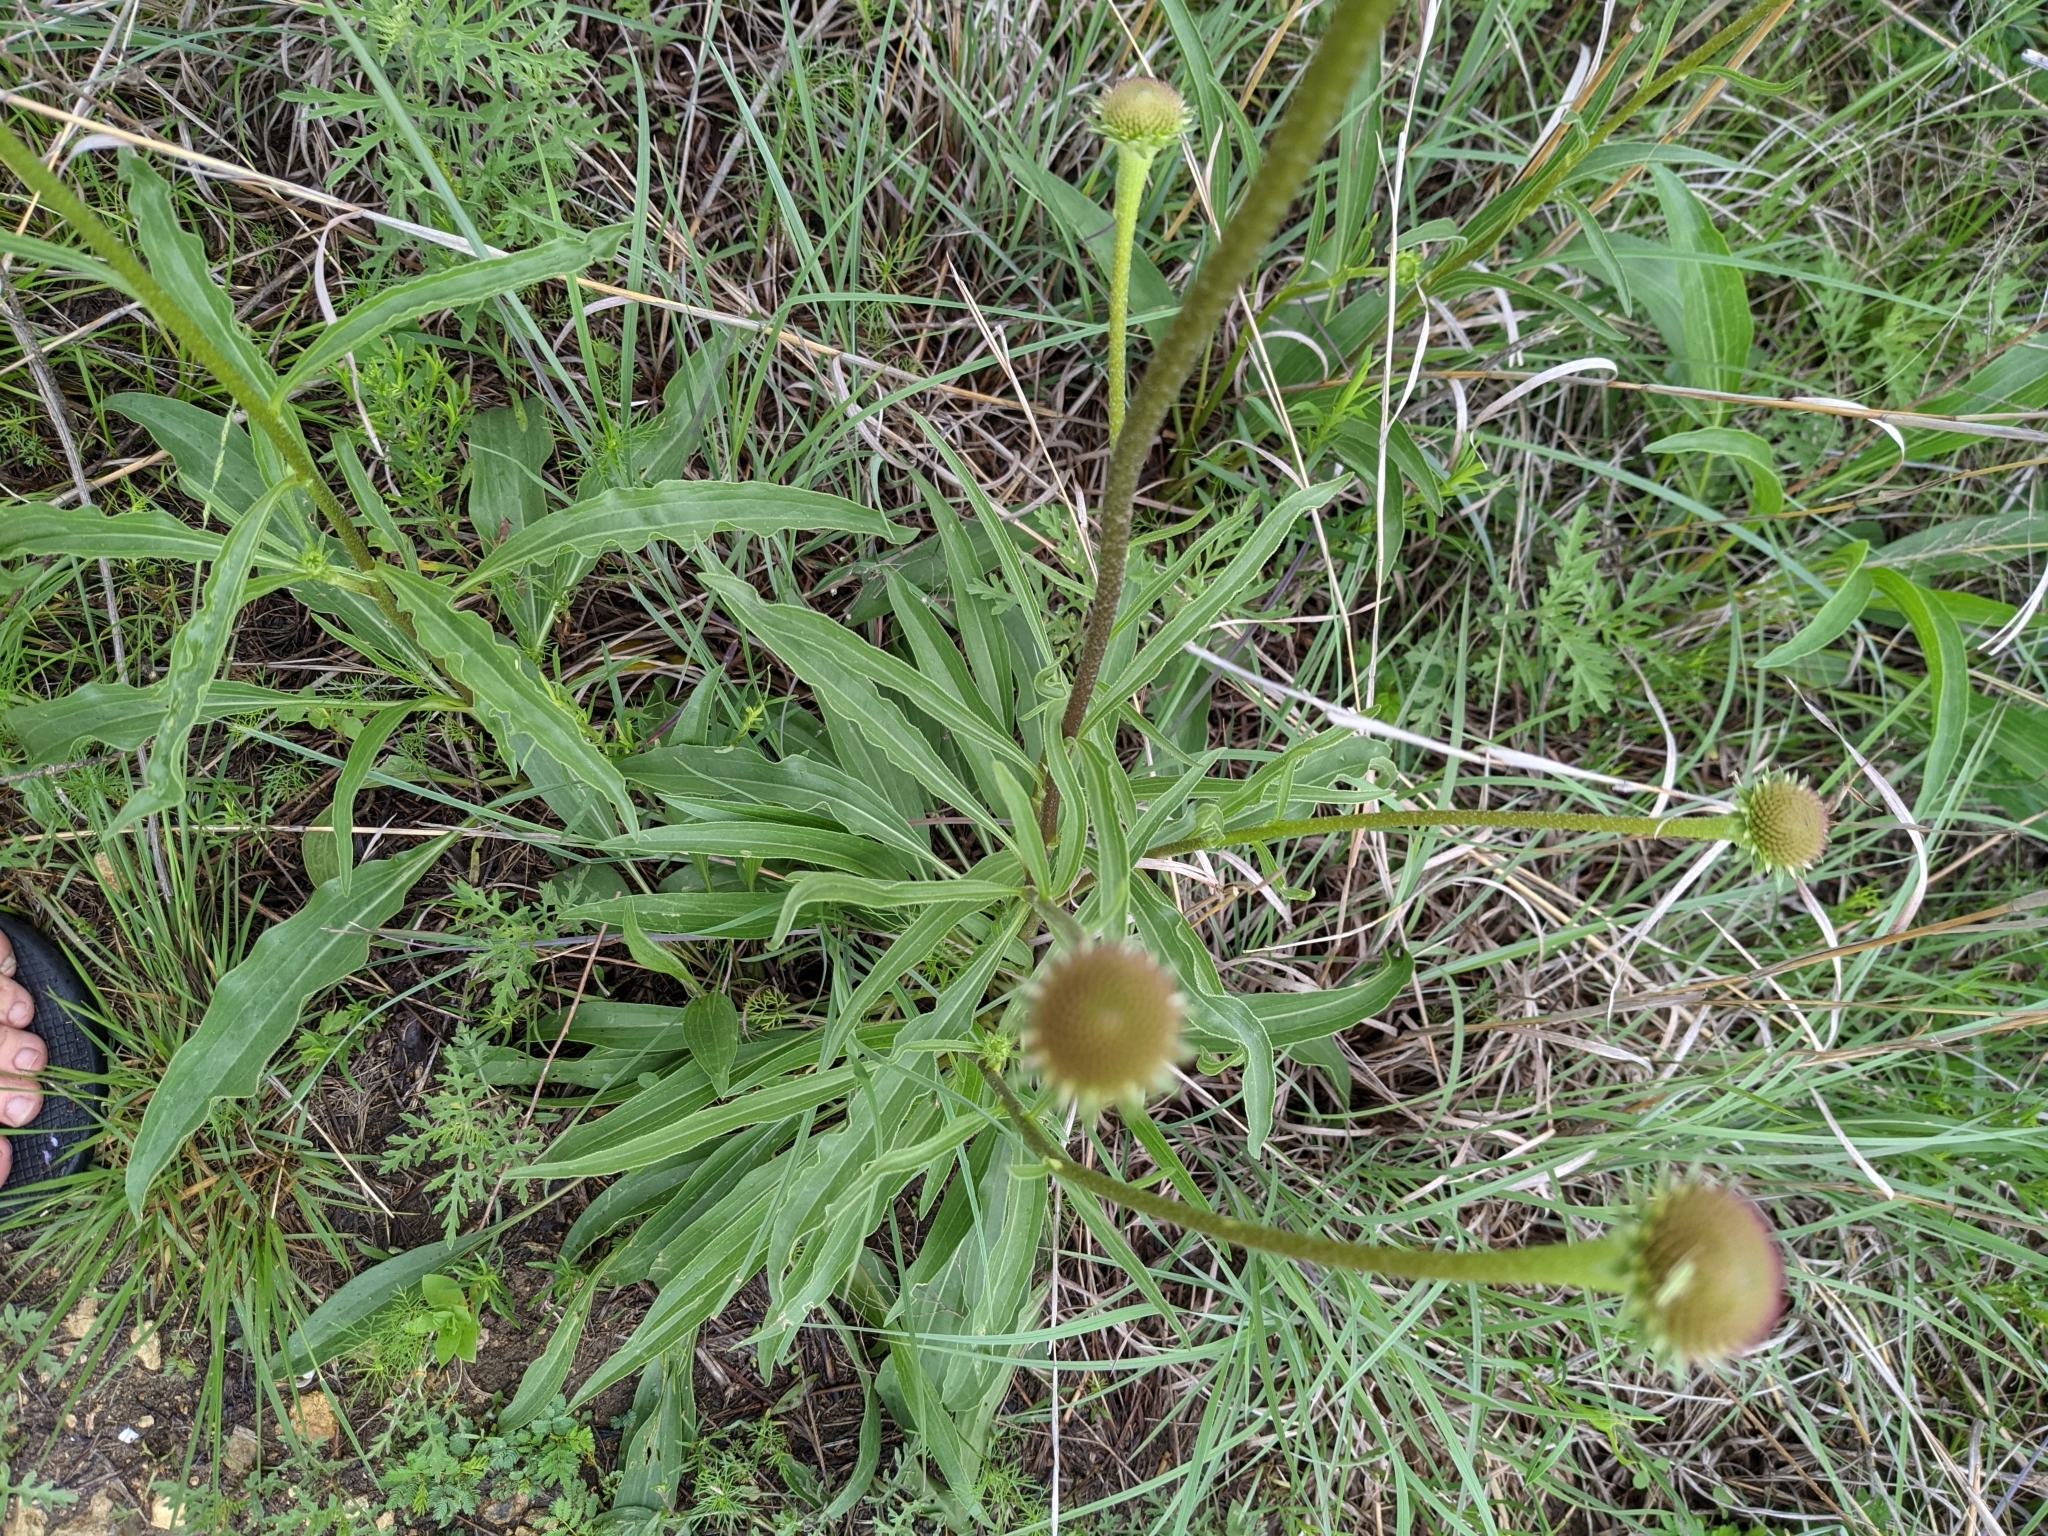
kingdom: Plantae
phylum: Tracheophyta
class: Magnoliopsida
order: Asterales
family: Asteraceae
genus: Echinacea
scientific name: Echinacea atrorubens
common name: Topeka purple-coneflower
